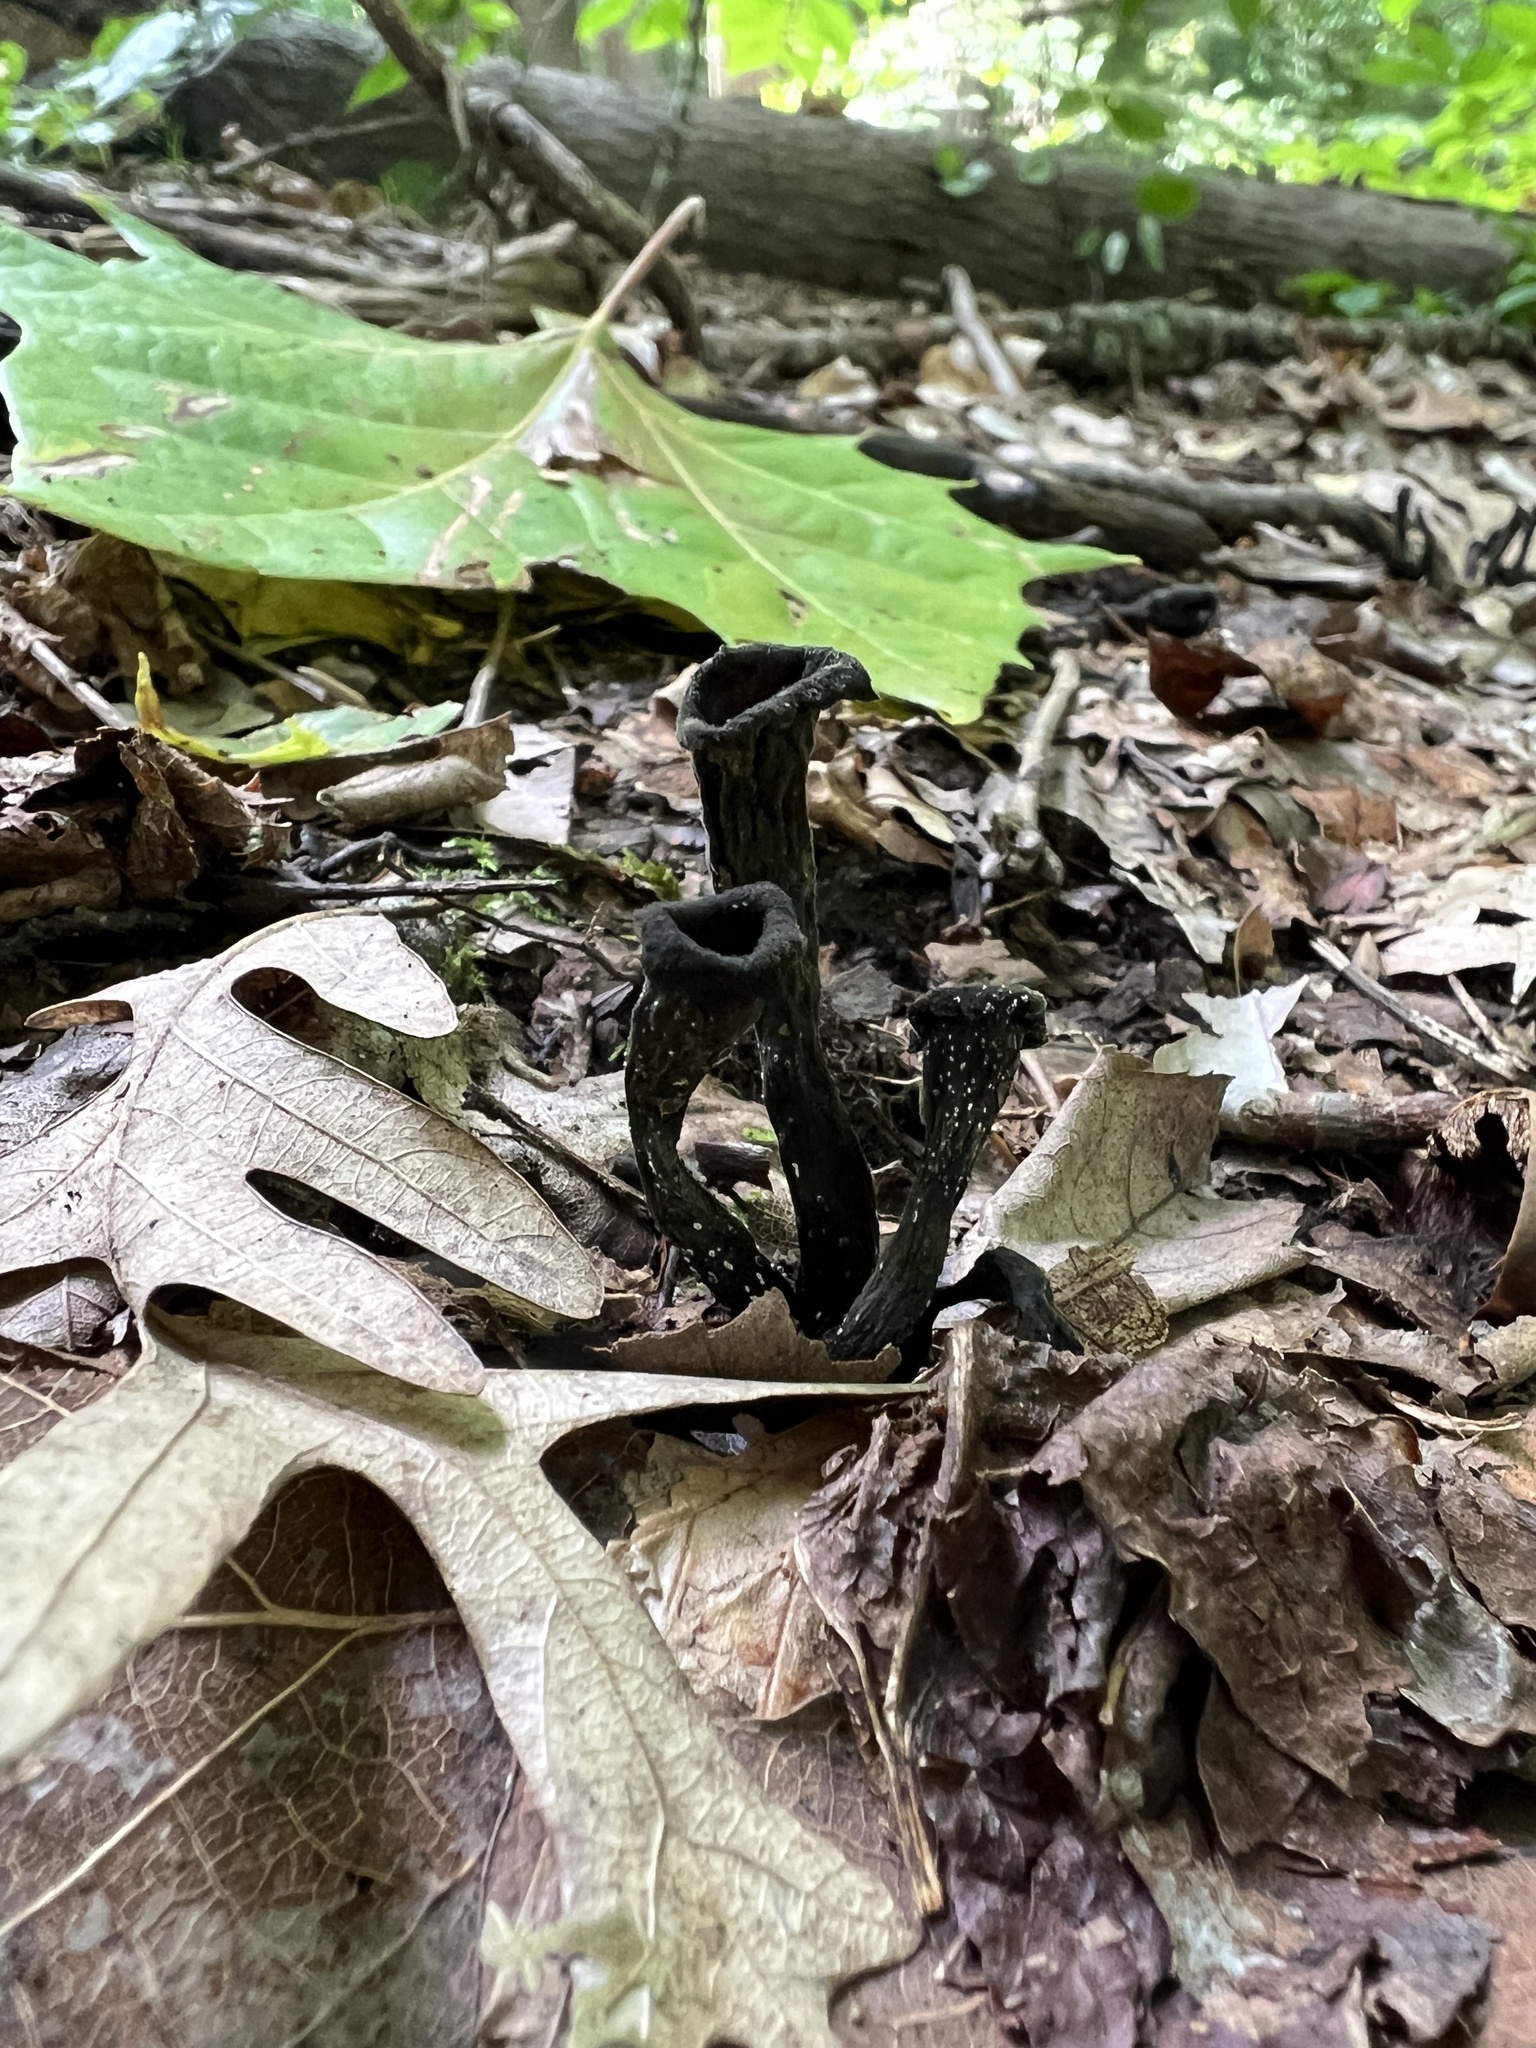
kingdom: Fungi
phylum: Basidiomycota
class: Agaricomycetes
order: Cantharellales
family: Hydnaceae
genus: Craterellus
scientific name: Craterellus cornucopioides
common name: Horn of plenty
